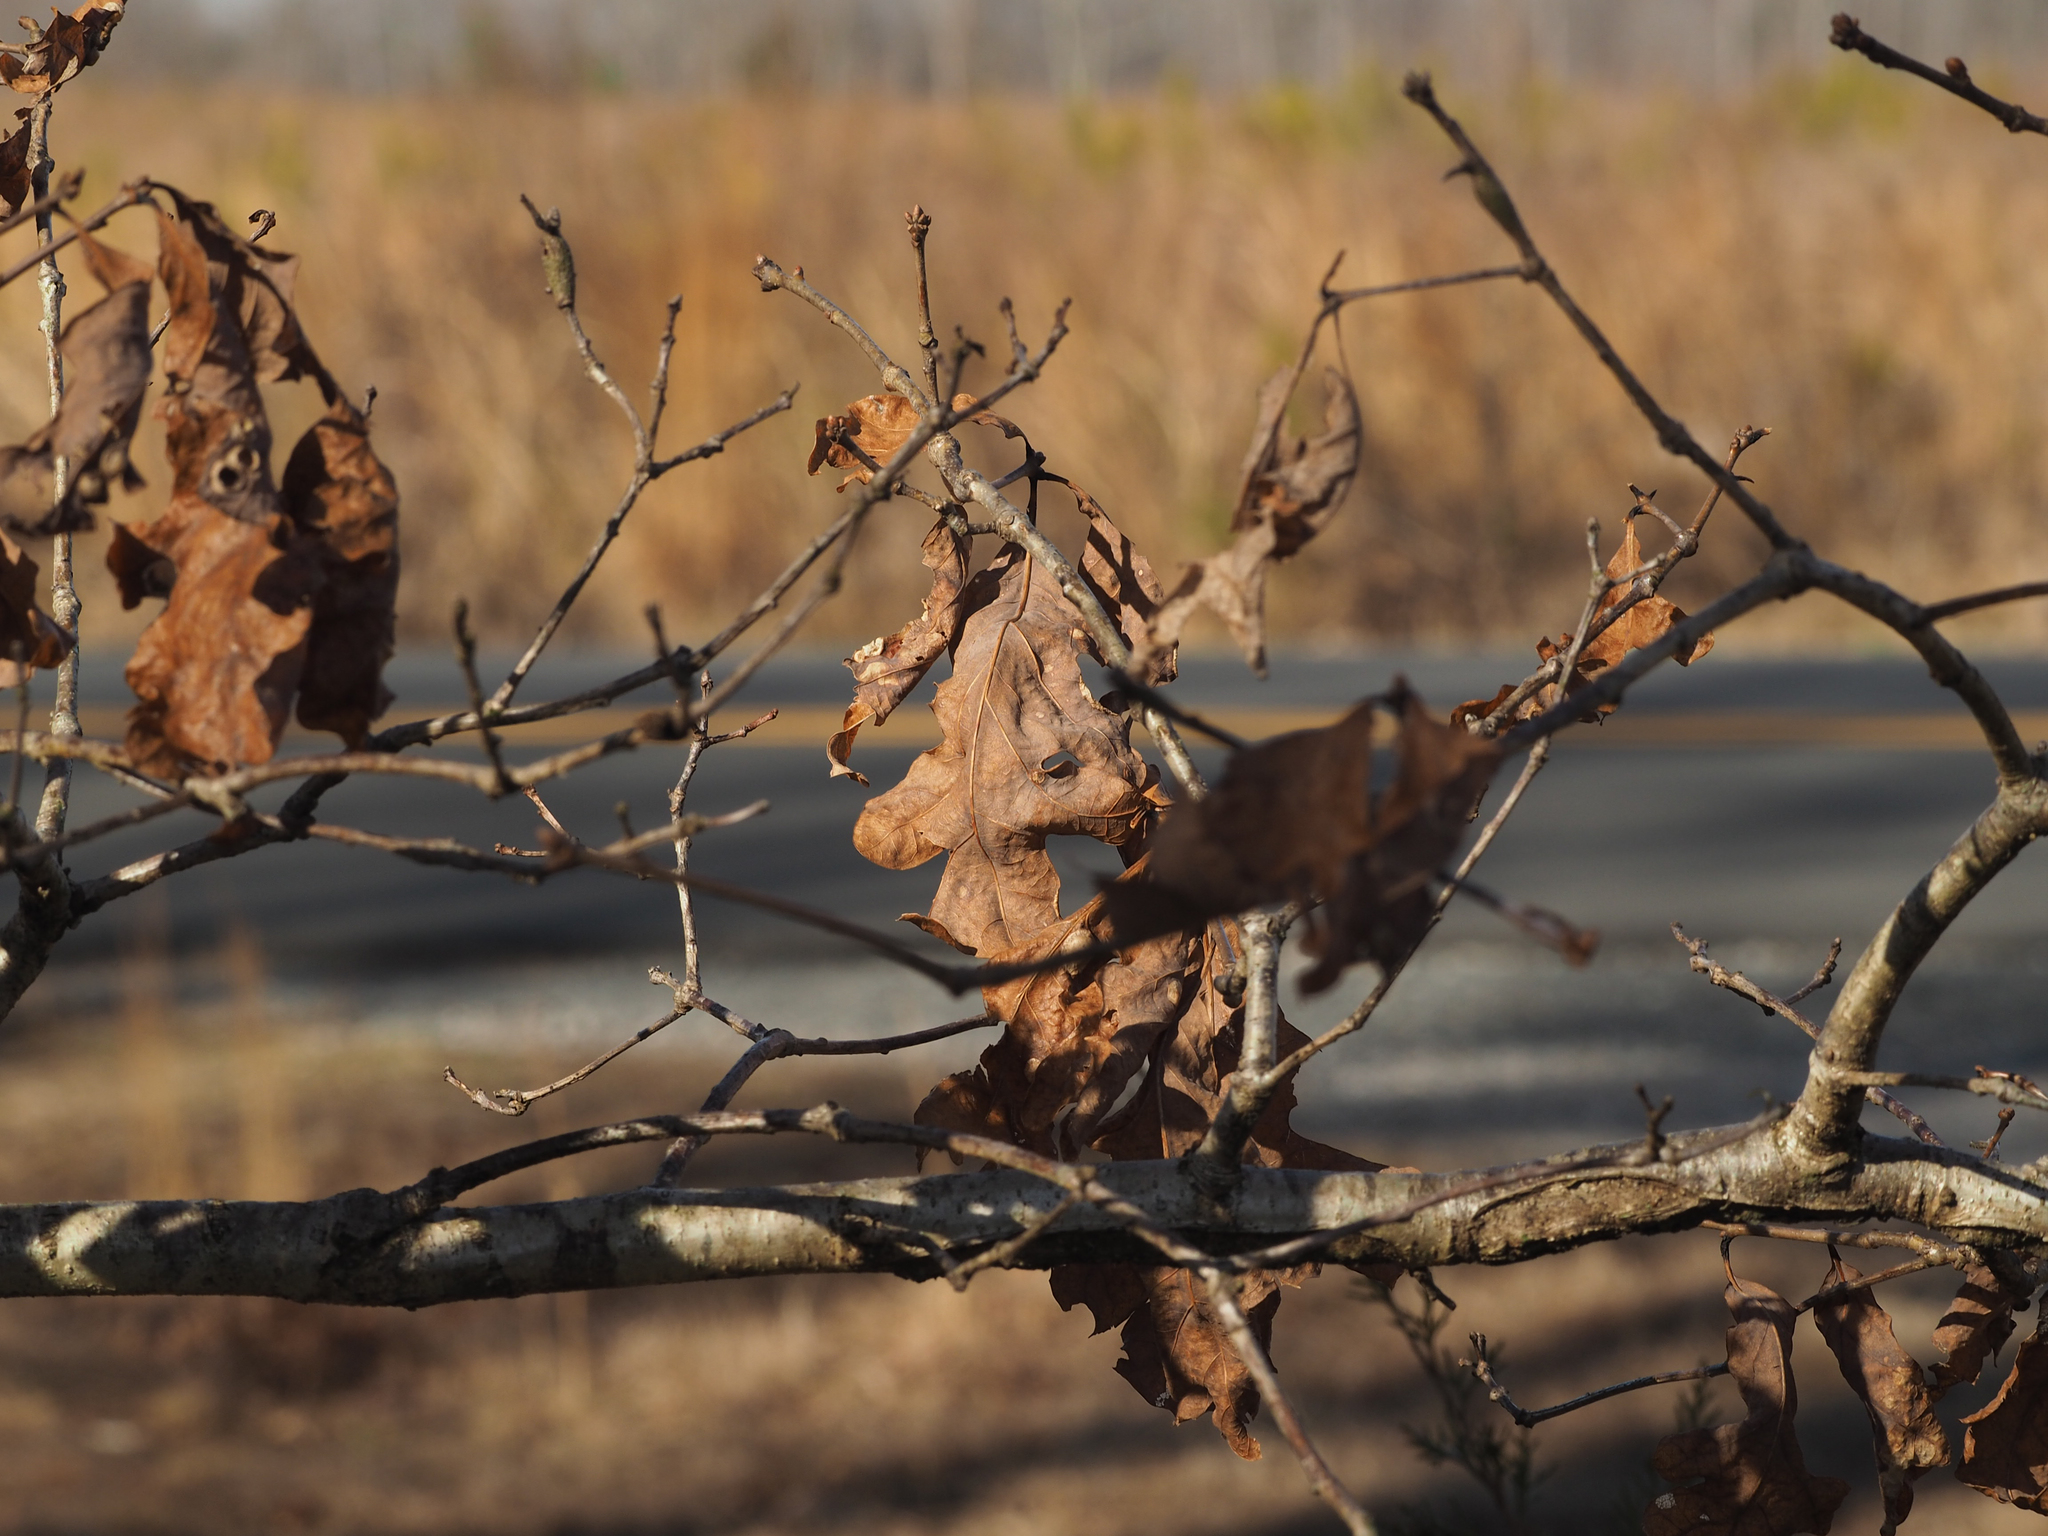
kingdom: Plantae
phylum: Tracheophyta
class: Magnoliopsida
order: Fagales
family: Fagaceae
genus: Quercus
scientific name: Quercus alba
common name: White oak
